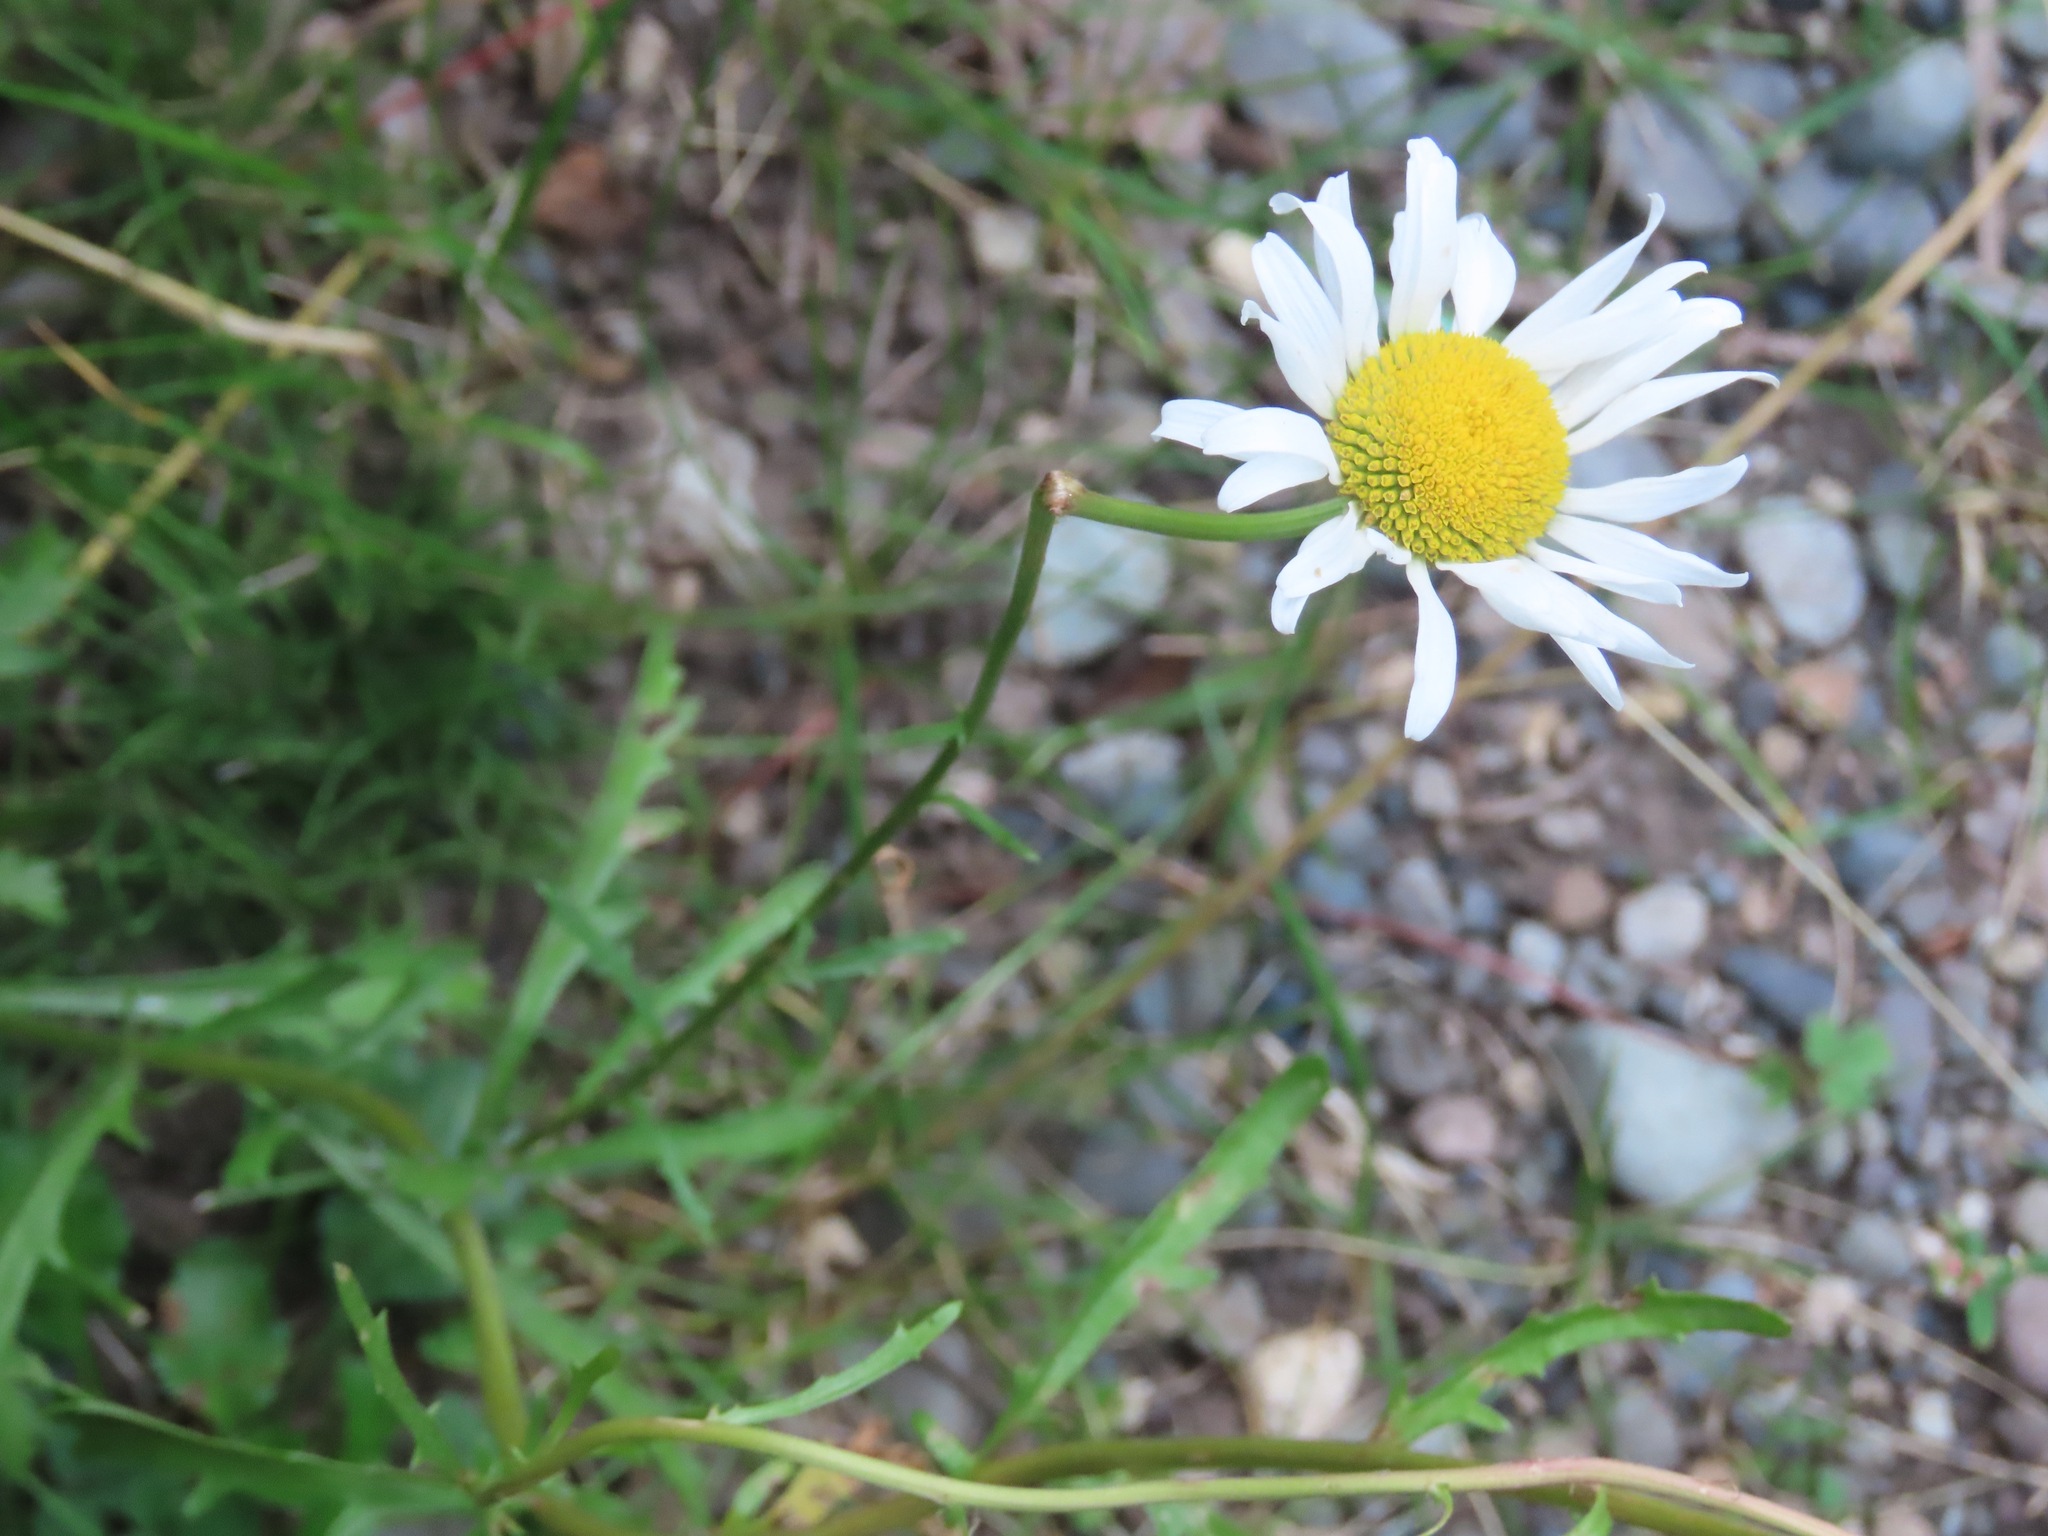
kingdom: Plantae
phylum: Tracheophyta
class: Magnoliopsida
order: Asterales
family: Asteraceae
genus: Leucanthemum
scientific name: Leucanthemum vulgare
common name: Oxeye daisy
